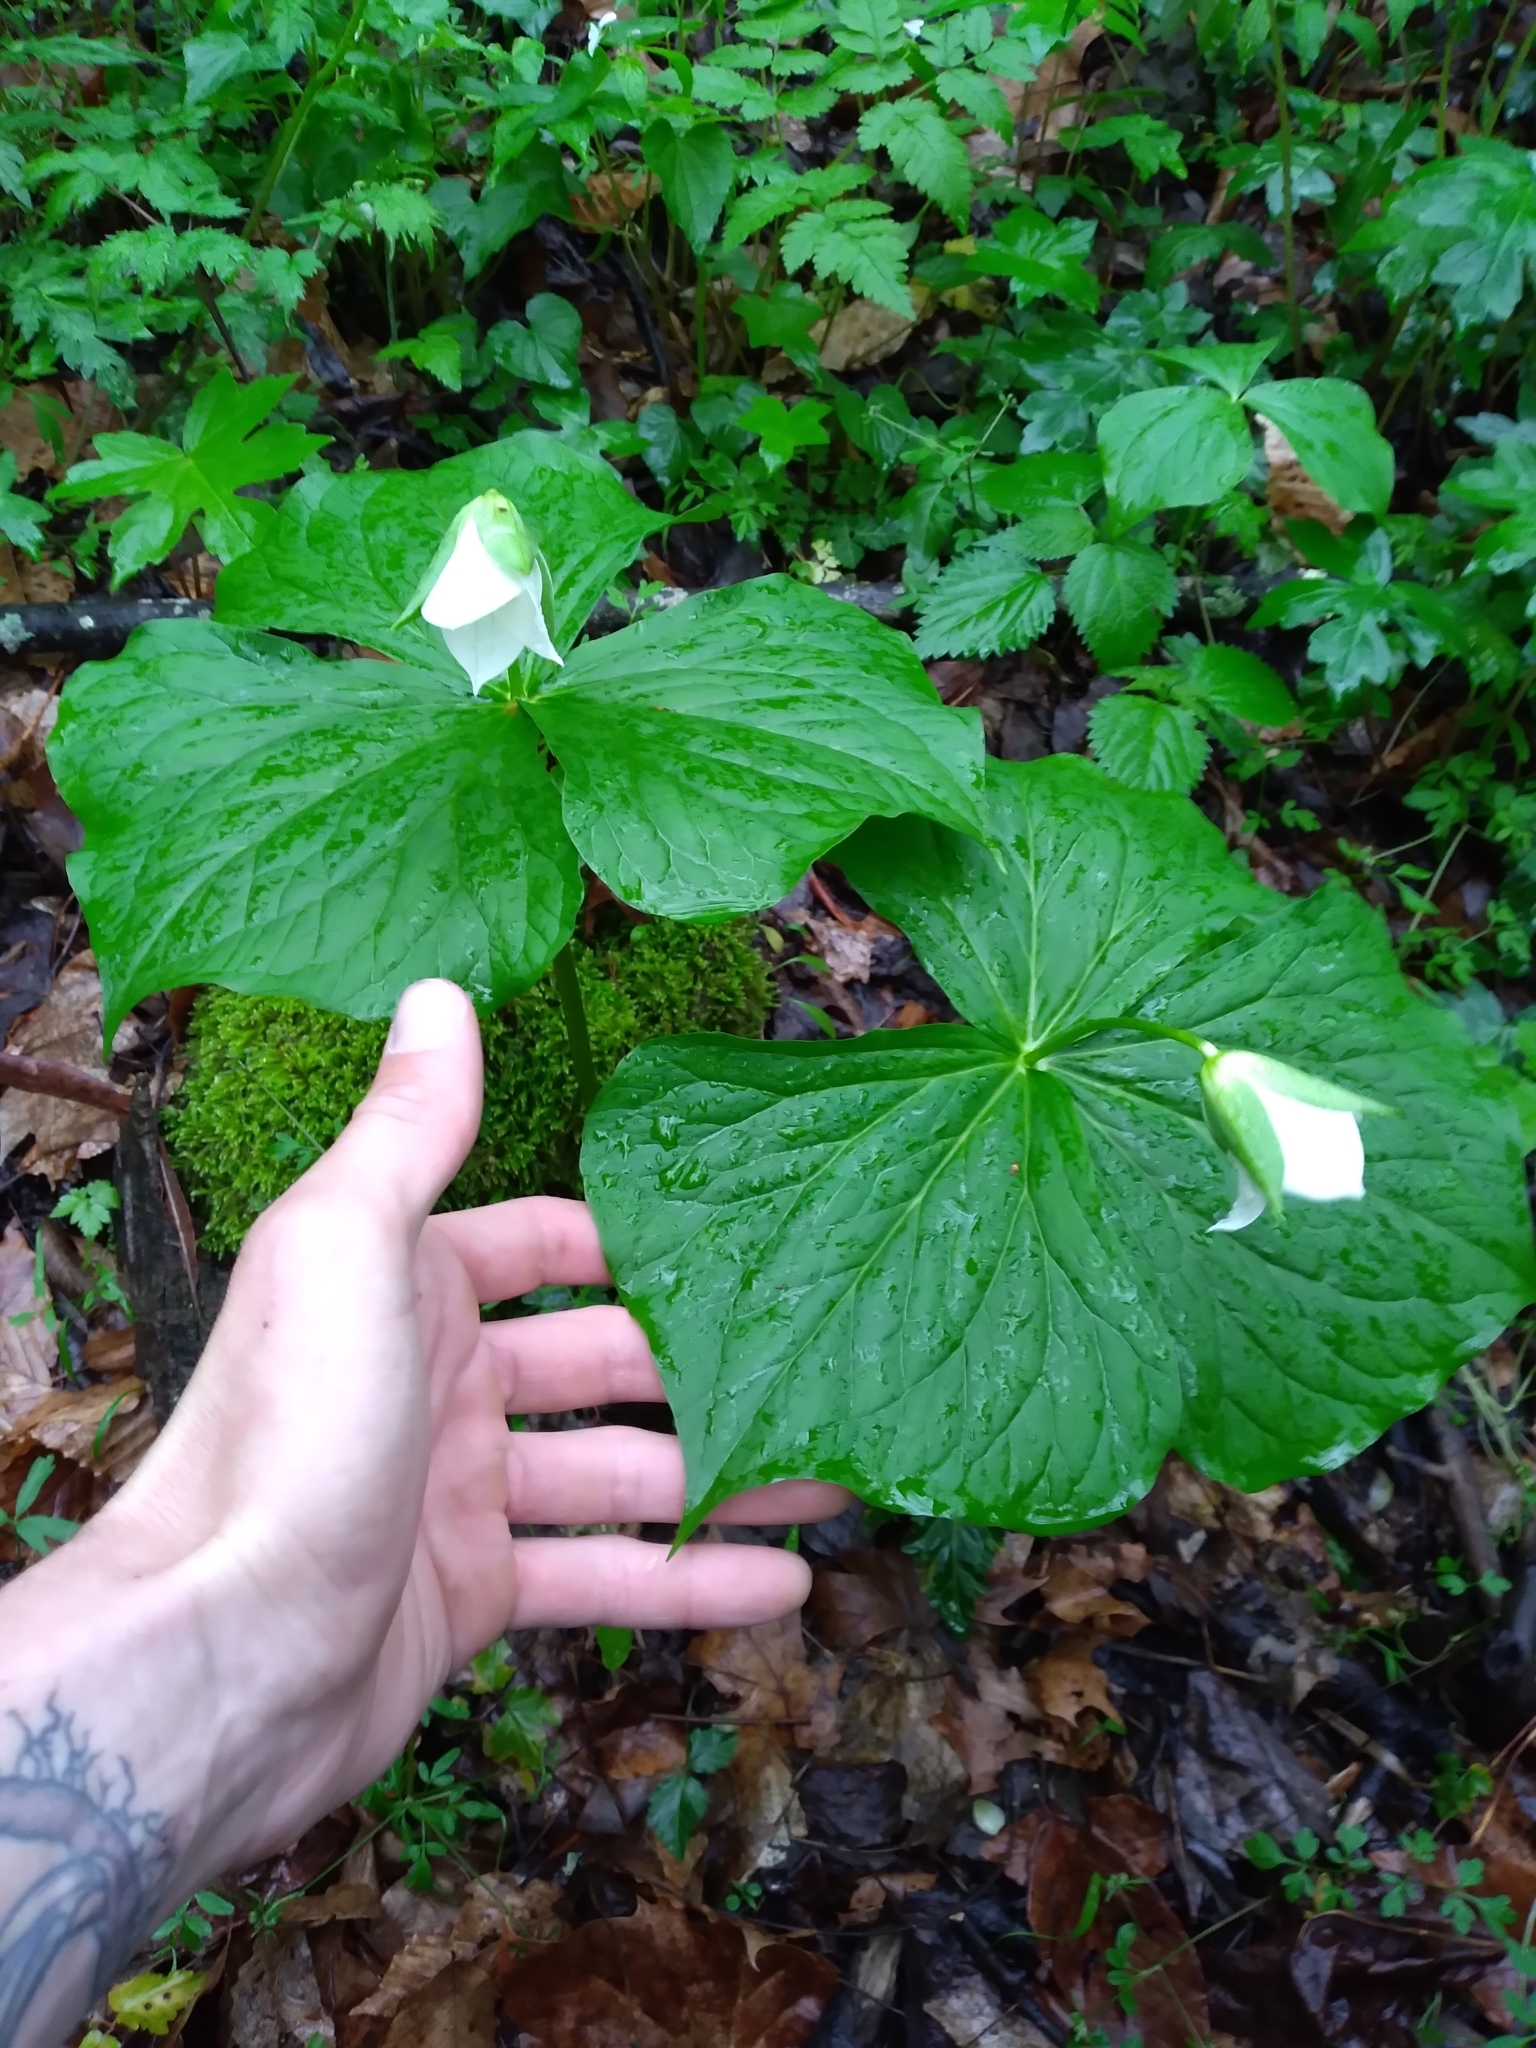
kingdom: Plantae
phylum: Tracheophyta
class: Liliopsida
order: Liliales
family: Melanthiaceae
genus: Trillium
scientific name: Trillium flexipes
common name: Drooping trillium
